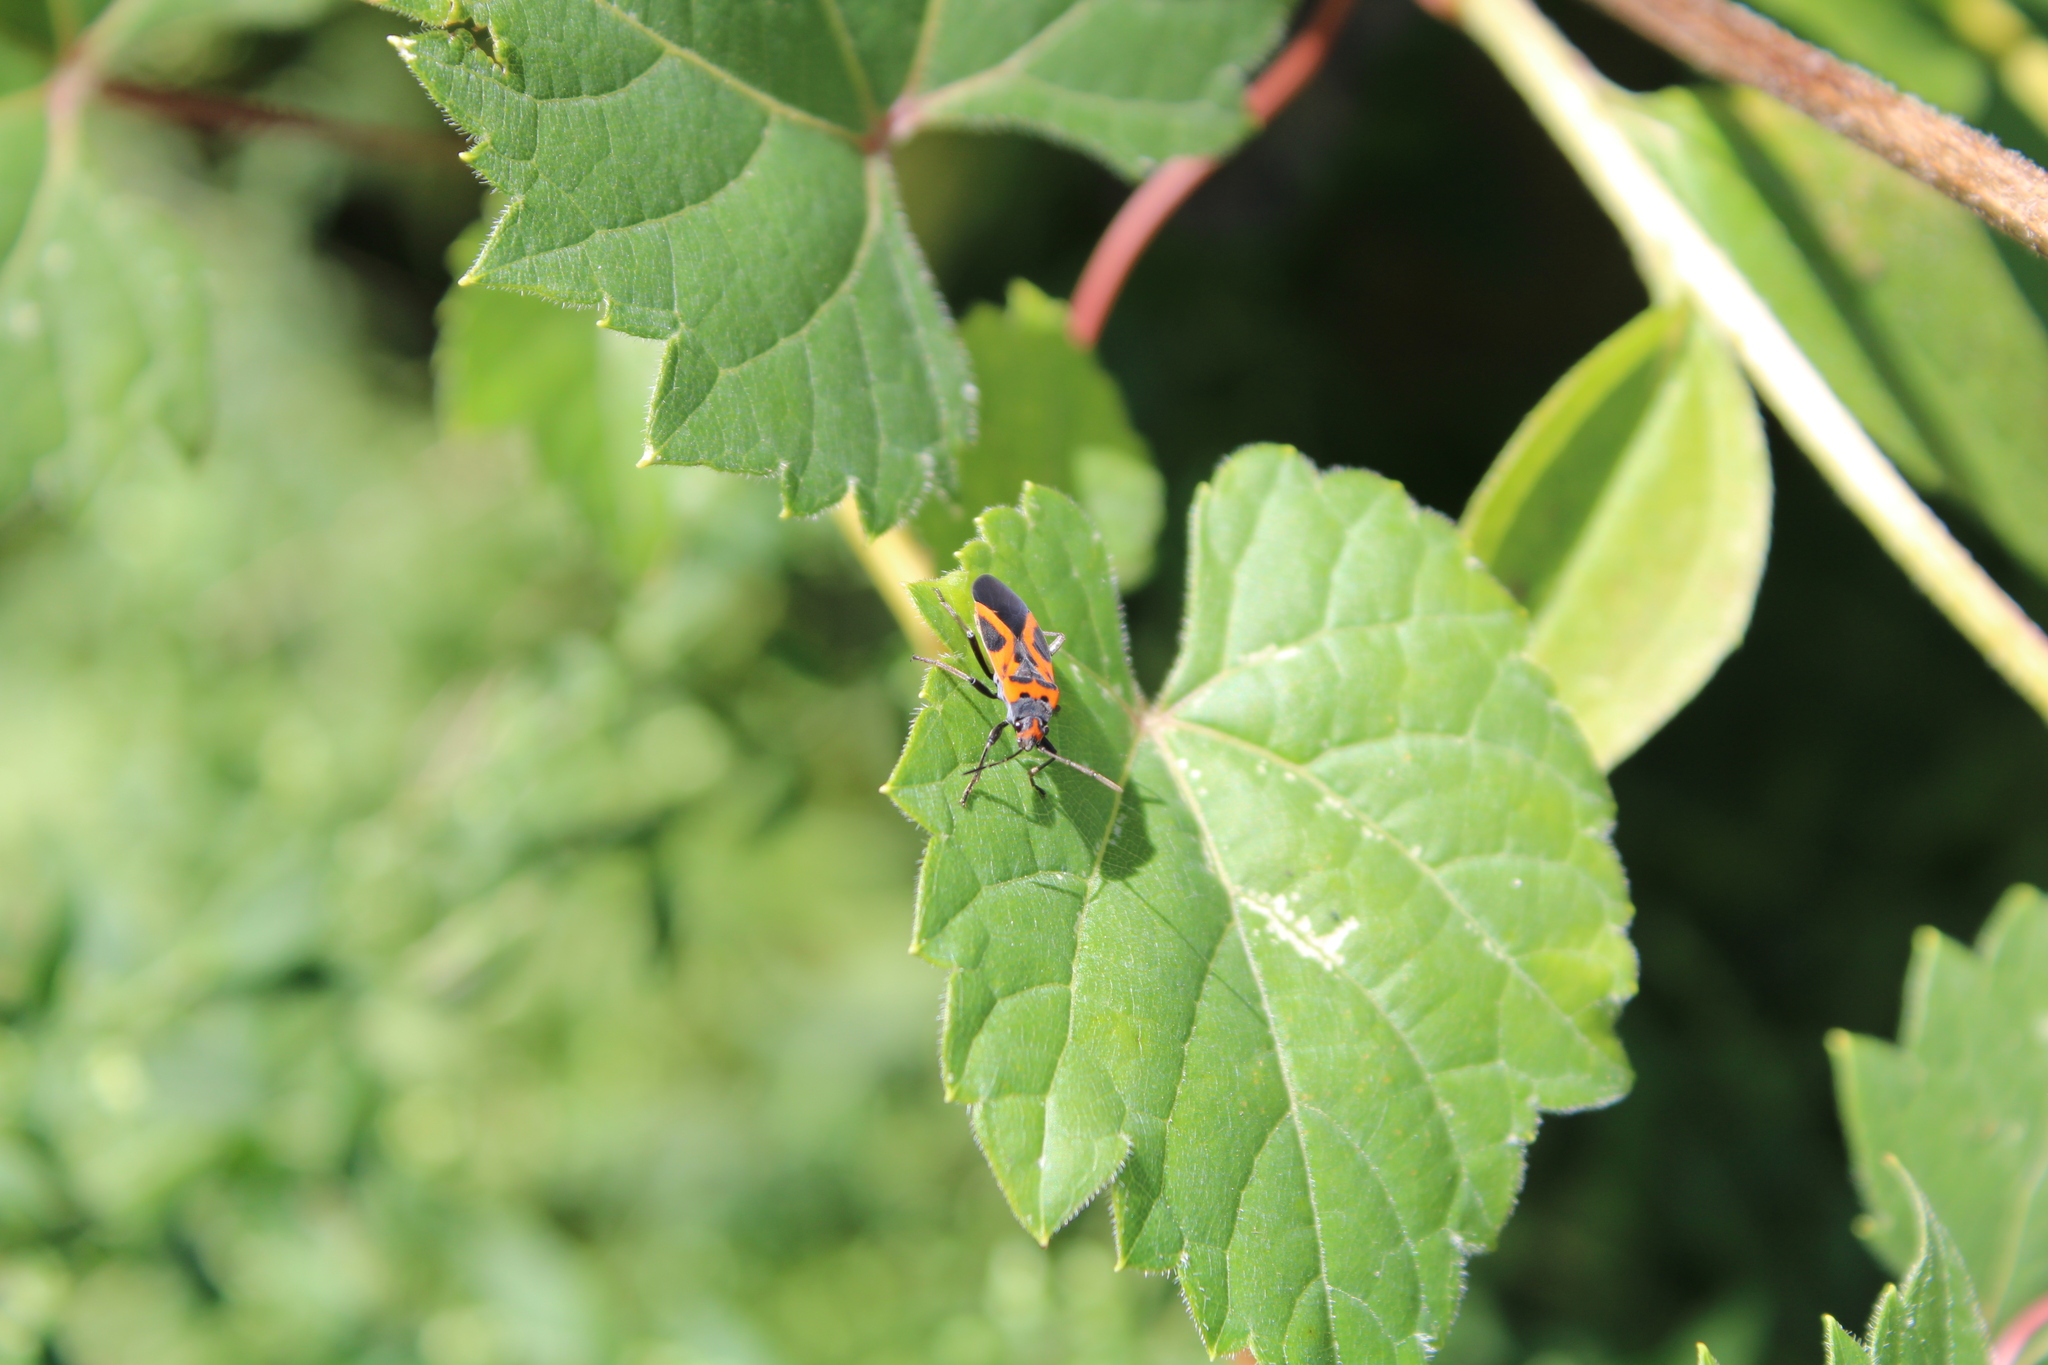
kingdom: Animalia
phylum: Arthropoda
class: Insecta
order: Hemiptera
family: Lygaeidae
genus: Lygaeus
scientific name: Lygaeus turcicus
